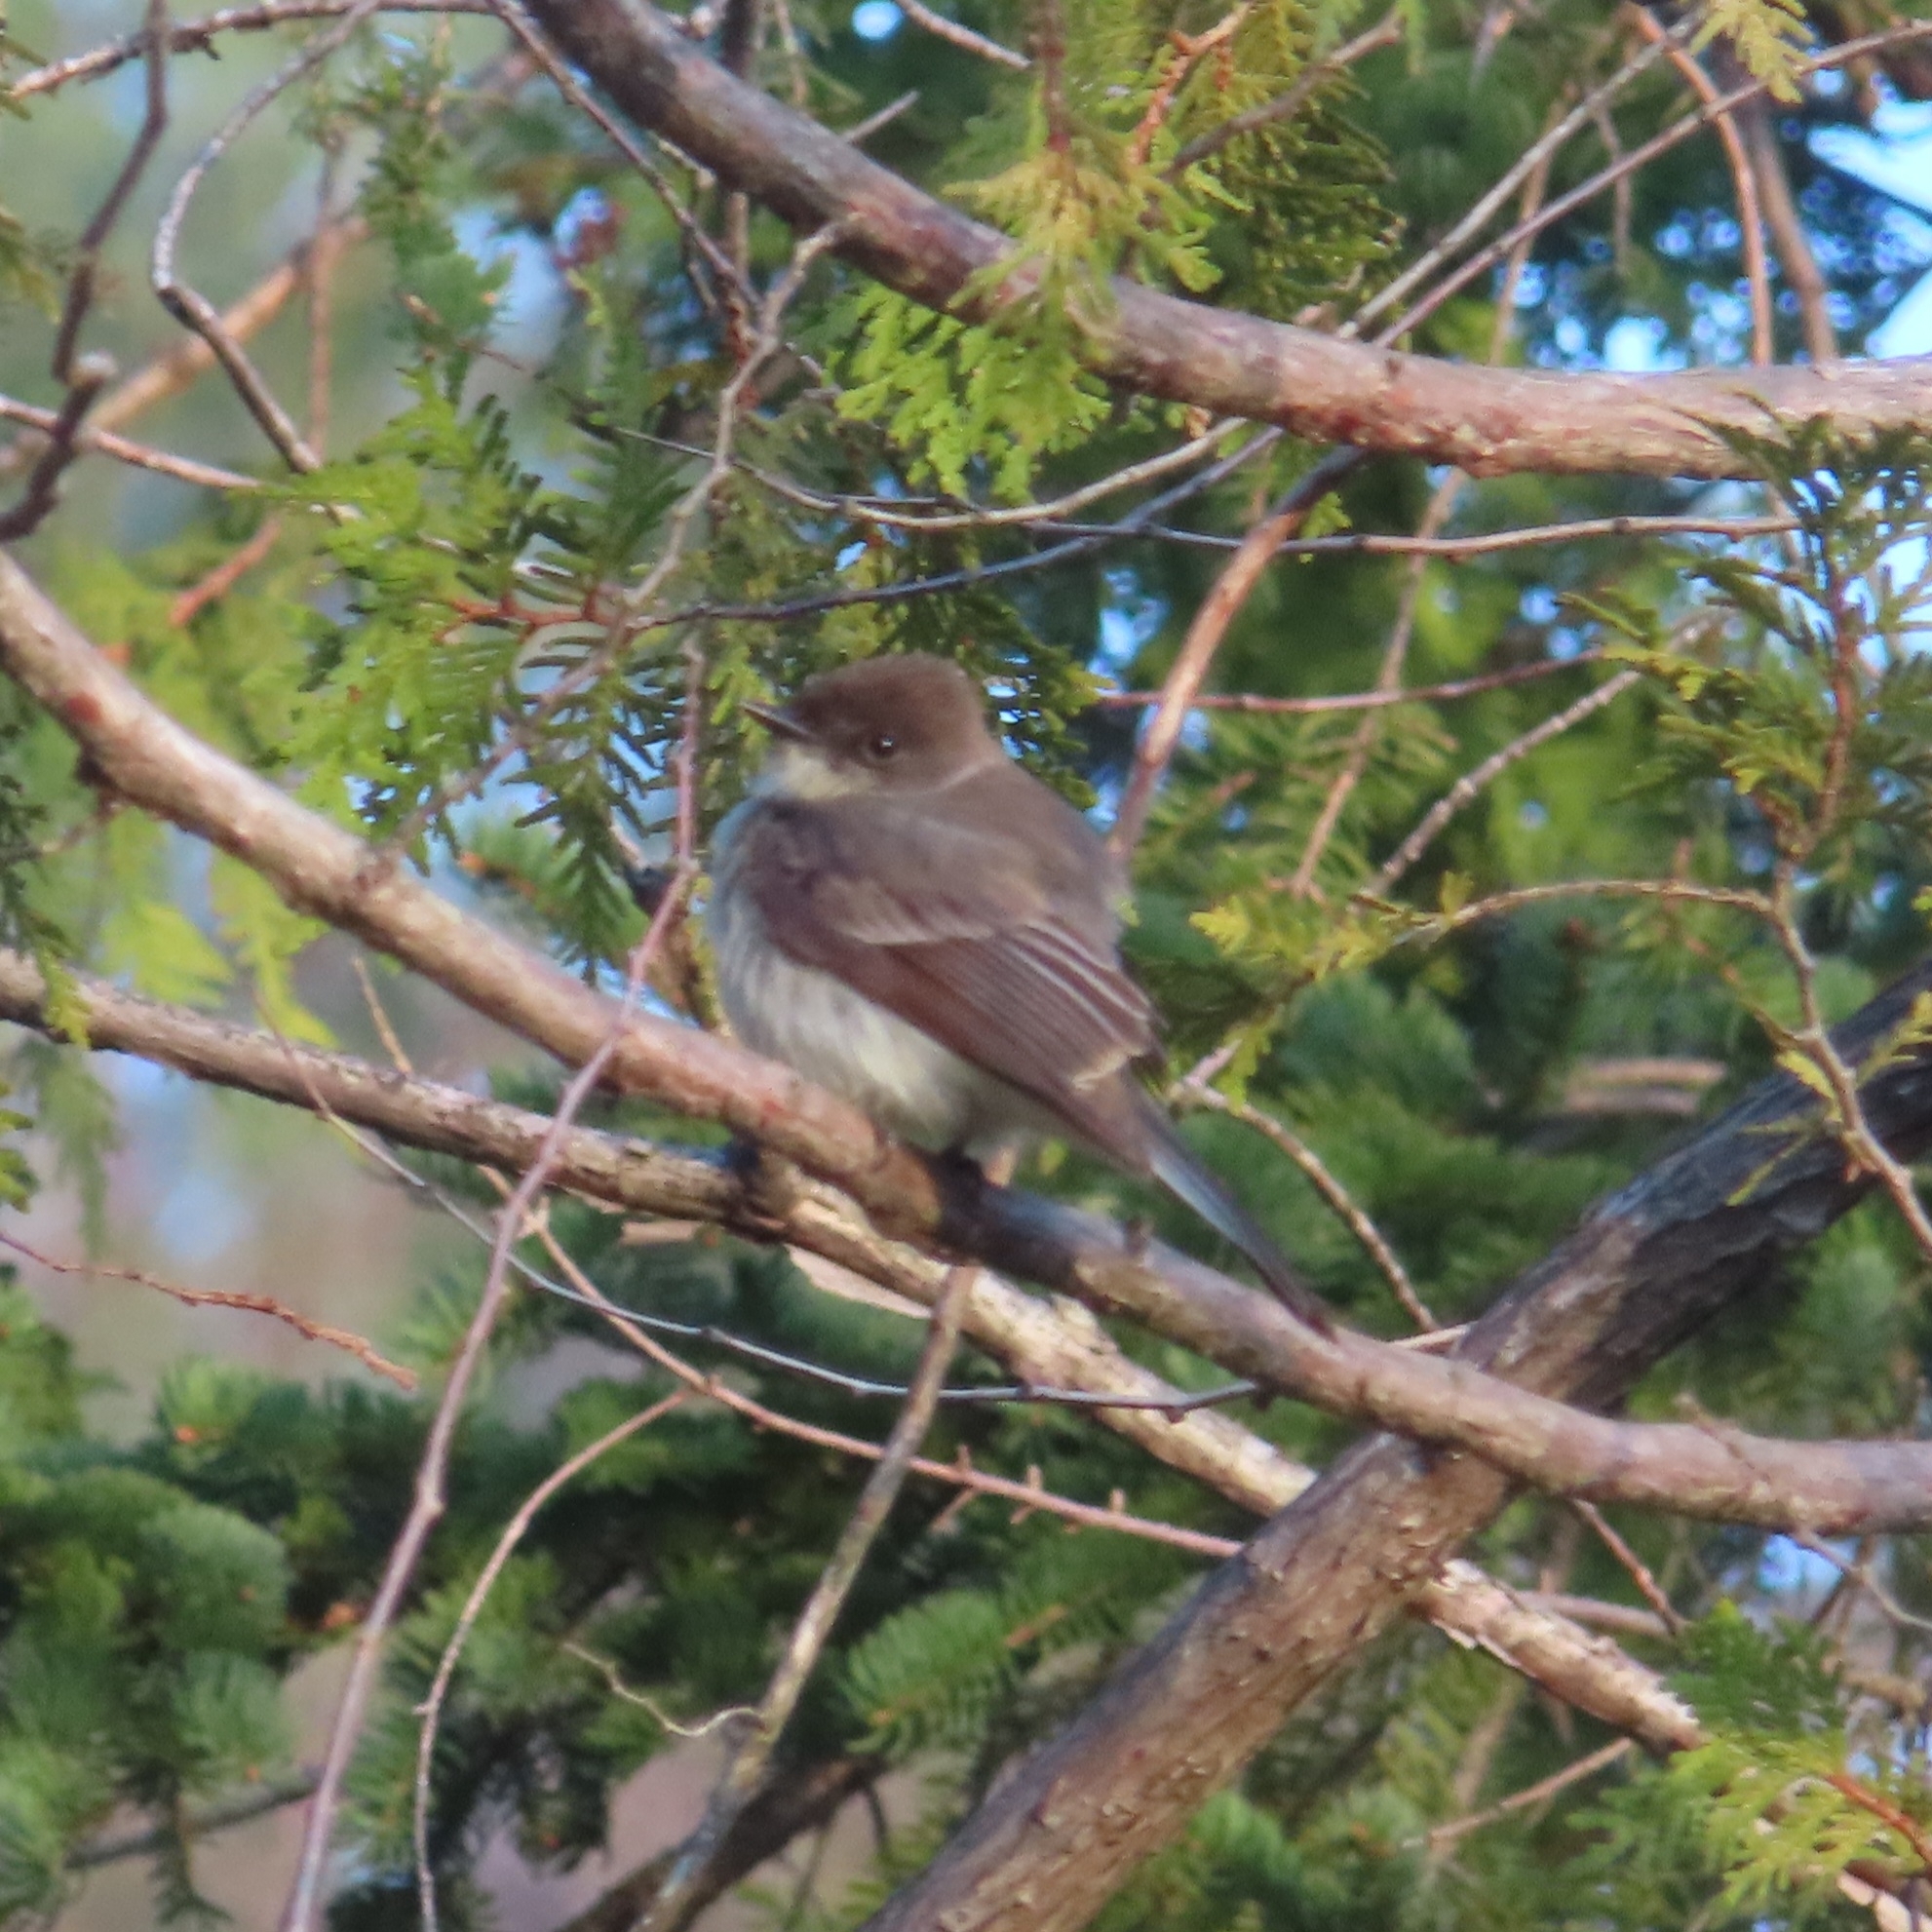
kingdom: Animalia
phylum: Chordata
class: Aves
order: Passeriformes
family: Tyrannidae
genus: Sayornis
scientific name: Sayornis phoebe
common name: Eastern phoebe
